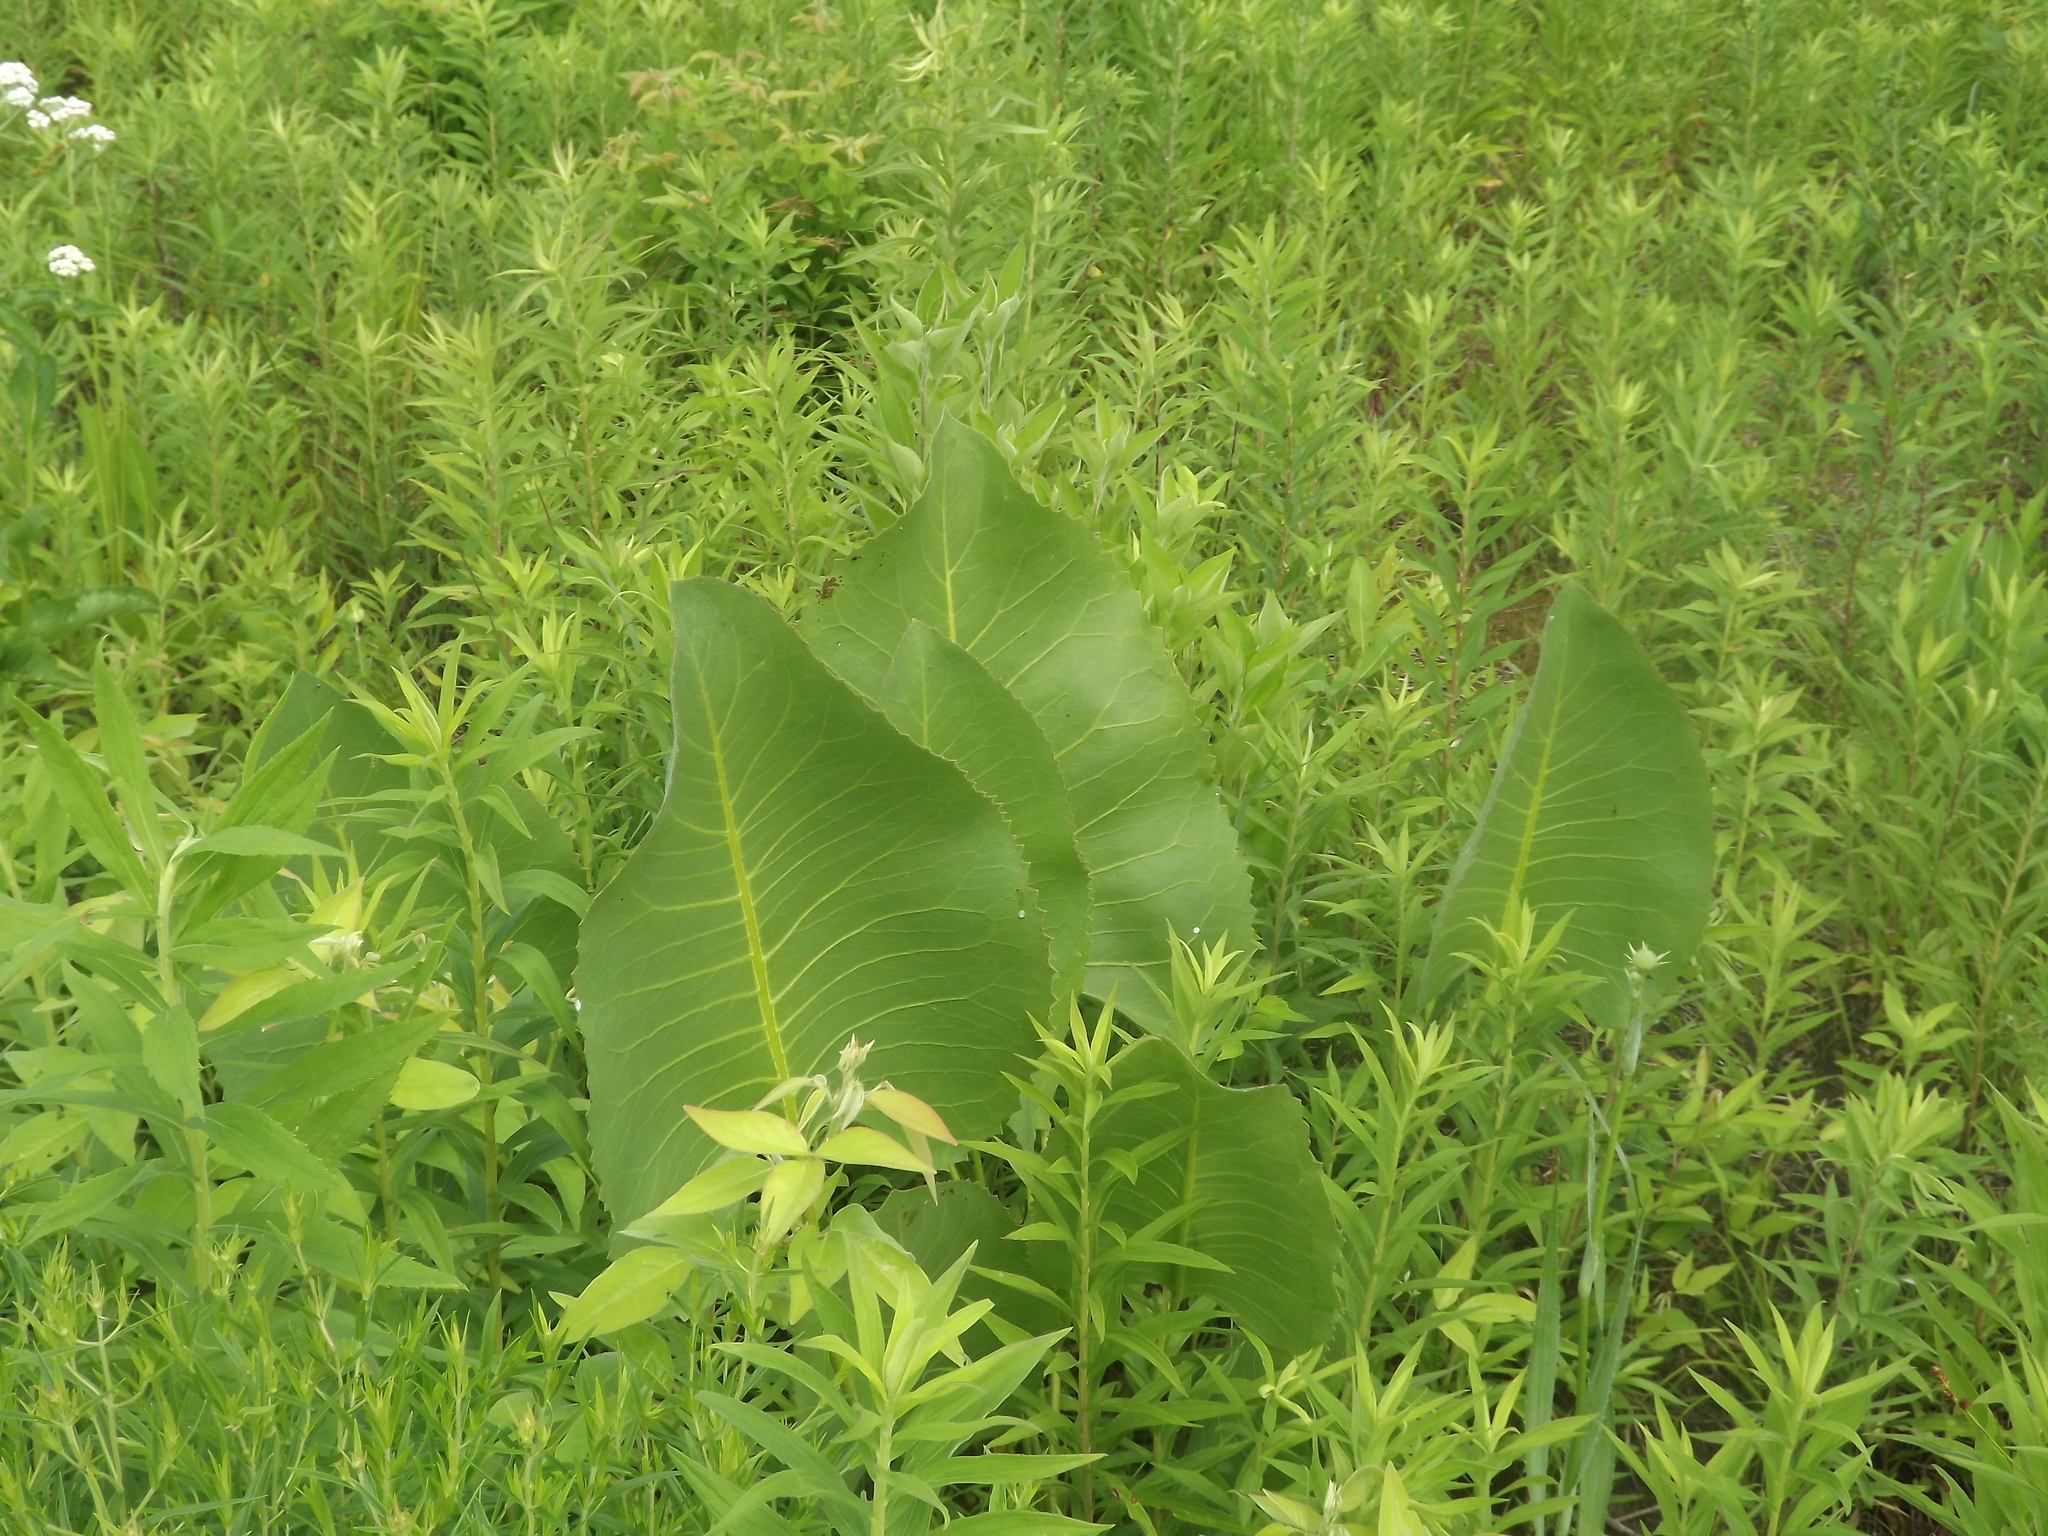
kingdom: Plantae
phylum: Tracheophyta
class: Magnoliopsida
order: Asterales
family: Asteraceae
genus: Silphium
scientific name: Silphium terebinthinaceum
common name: Basal-leaf rosinweed
